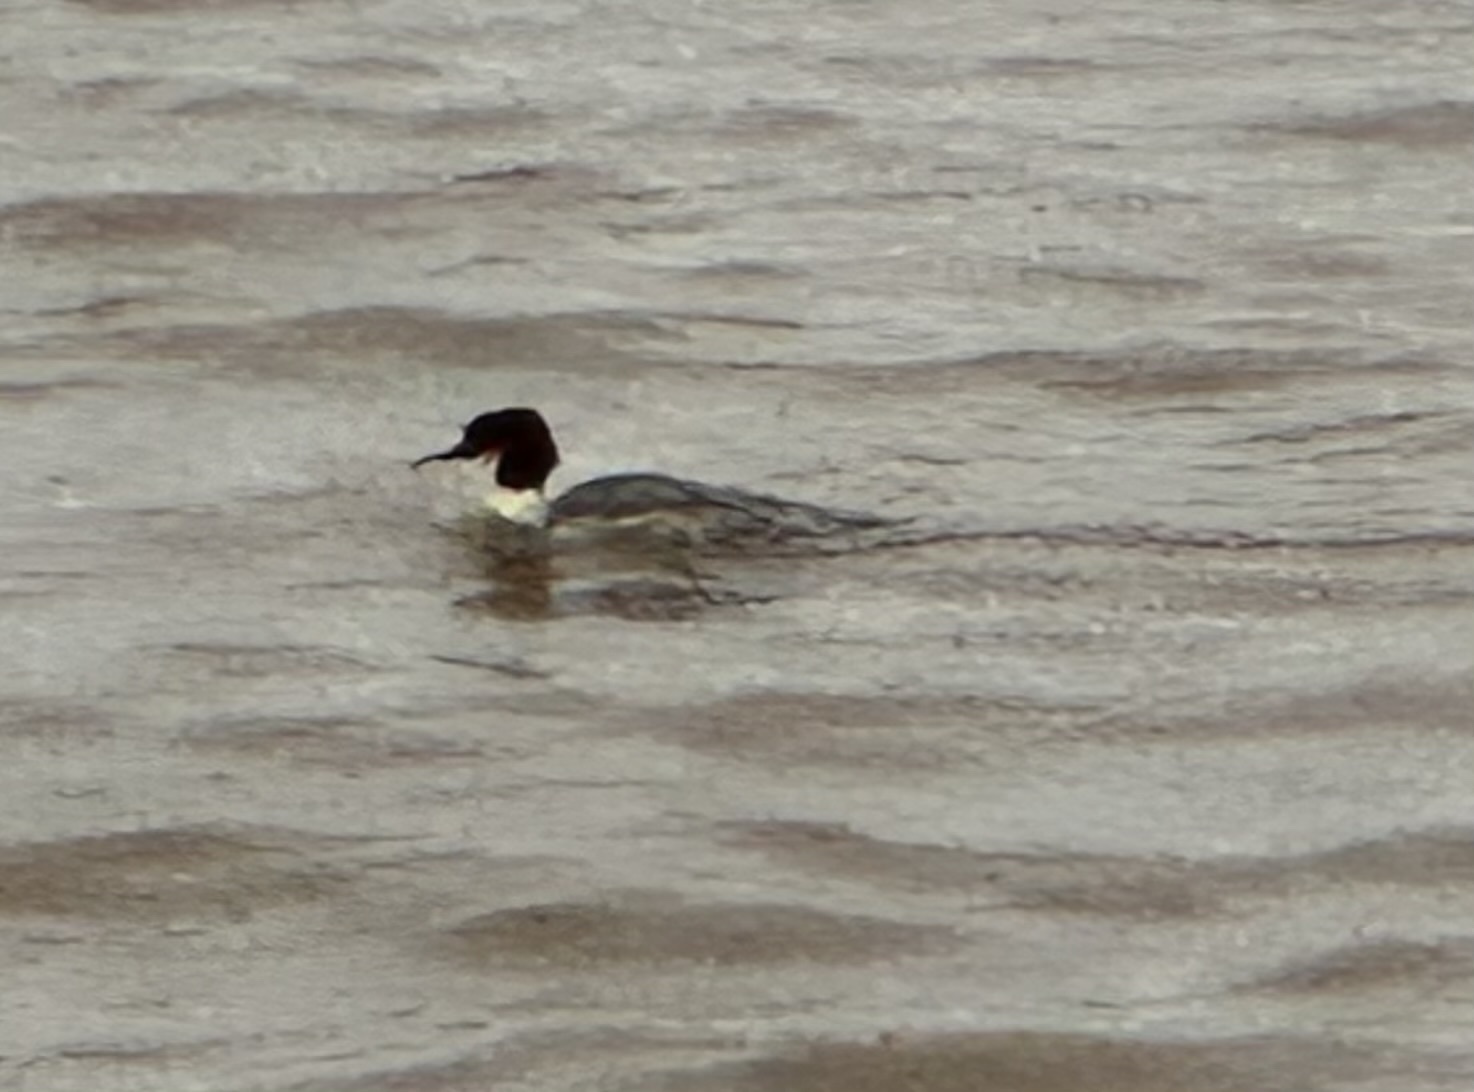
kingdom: Animalia
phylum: Chordata
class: Aves
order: Anseriformes
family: Anatidae
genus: Mergus
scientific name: Mergus merganser
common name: Common merganser
